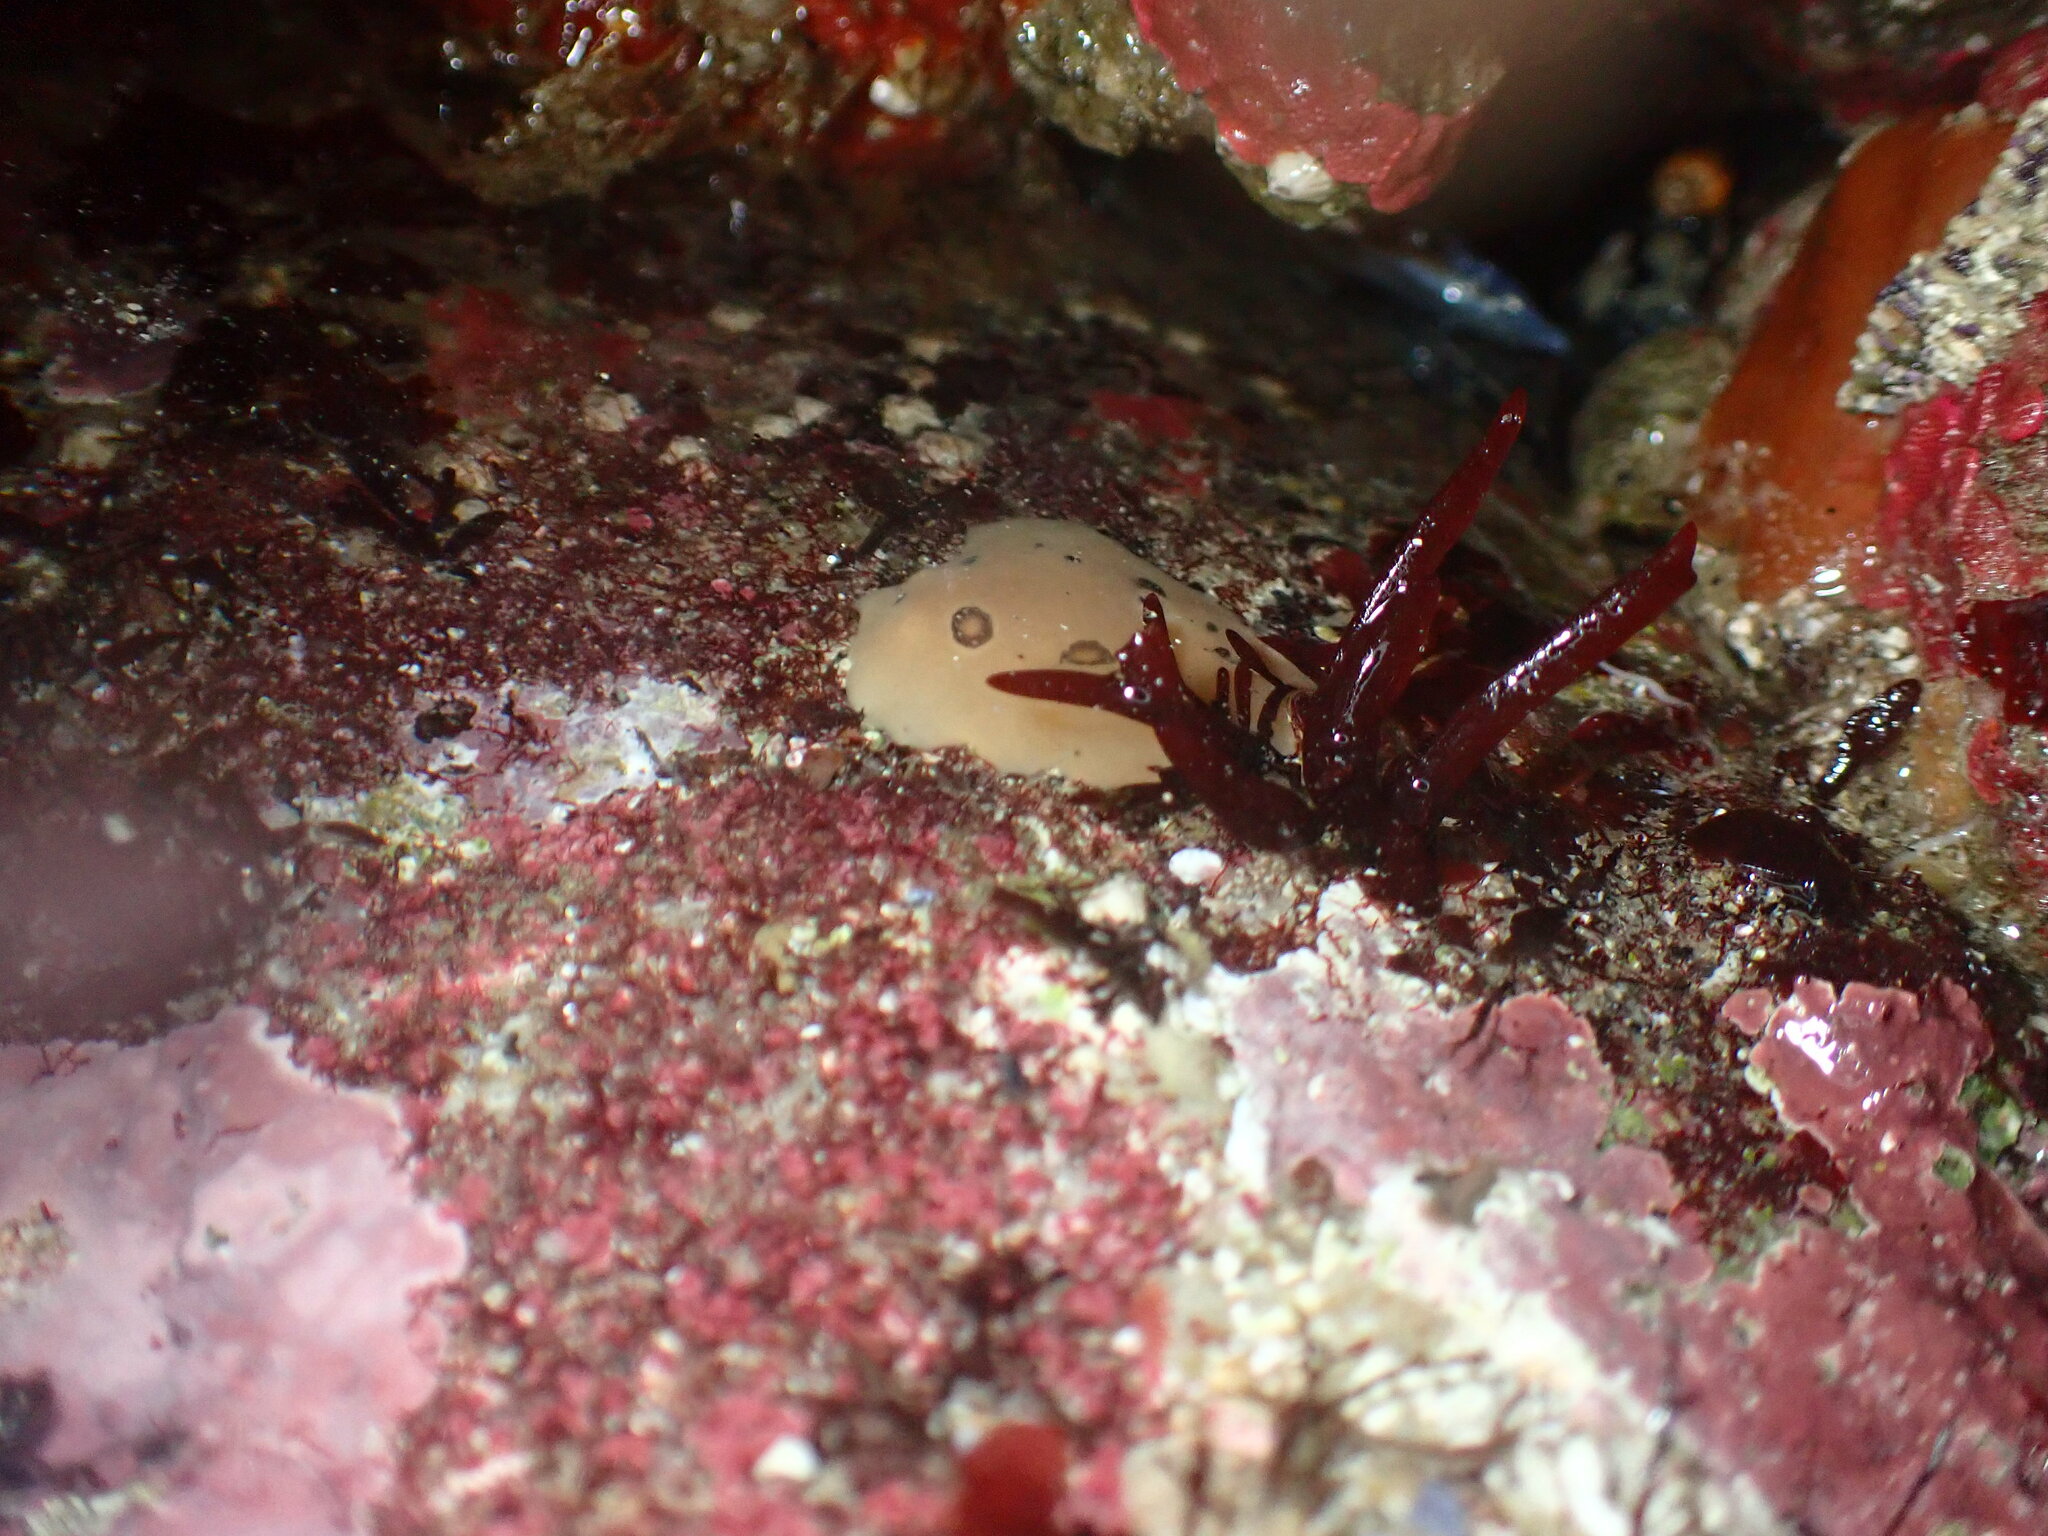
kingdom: Animalia
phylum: Mollusca
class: Gastropoda
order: Nudibranchia
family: Discodorididae
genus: Diaulula
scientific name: Diaulula sandiegensis
